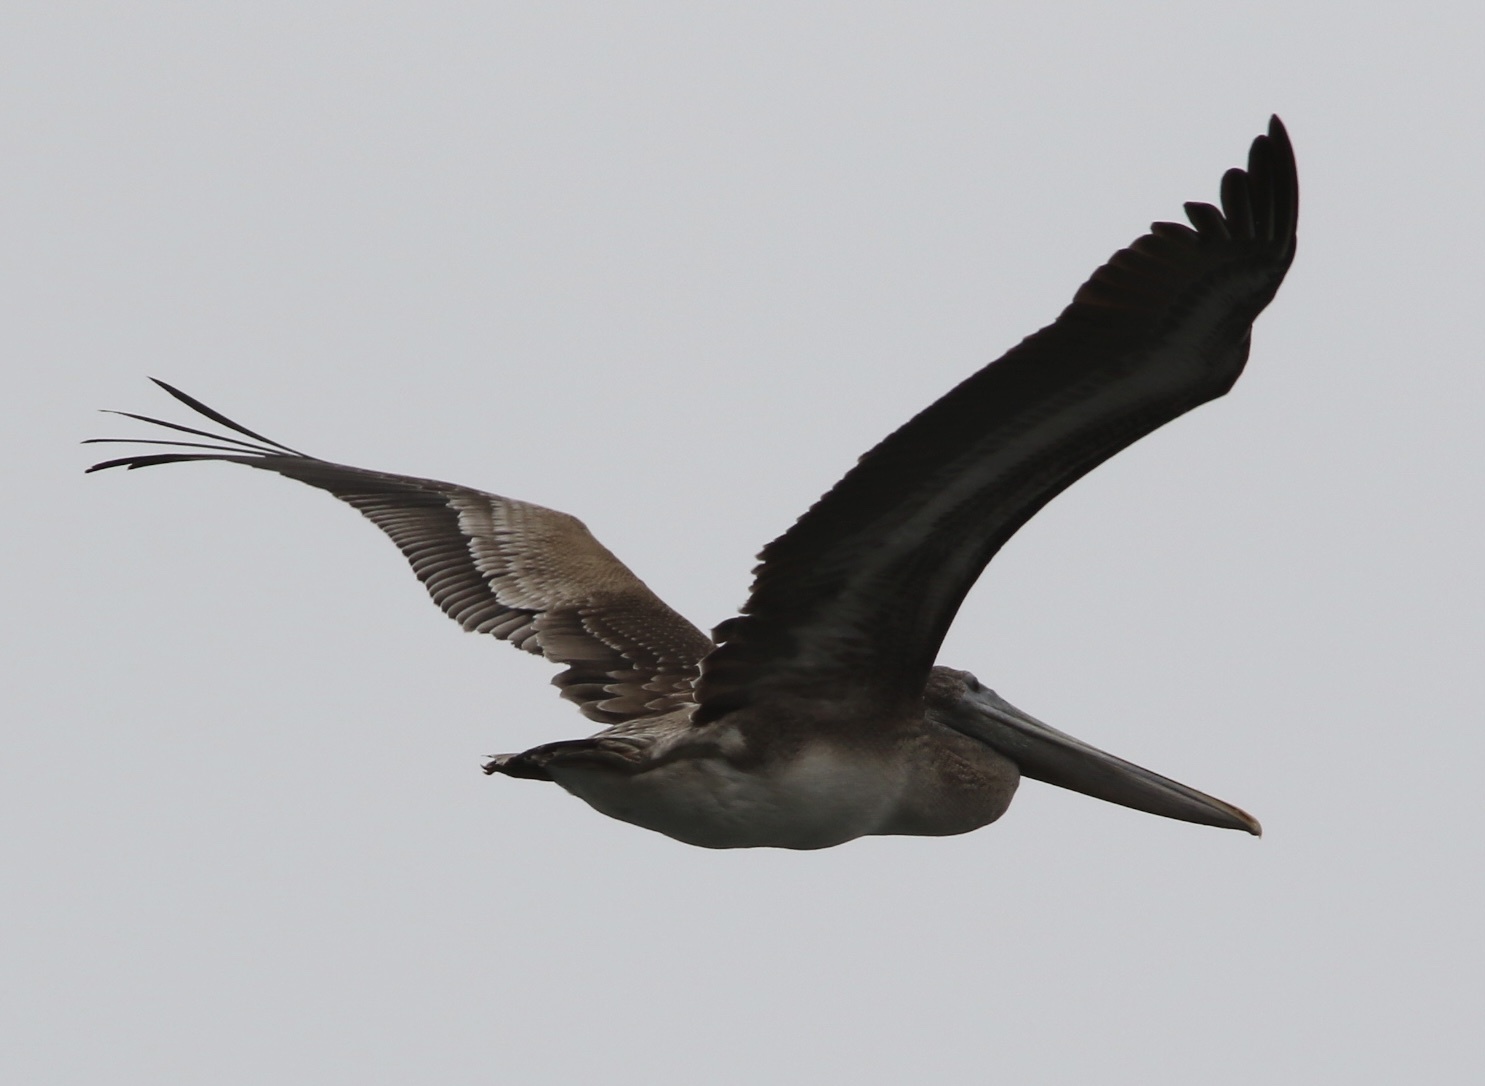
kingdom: Animalia
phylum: Chordata
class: Aves
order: Pelecaniformes
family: Pelecanidae
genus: Pelecanus
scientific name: Pelecanus occidentalis
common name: Brown pelican
